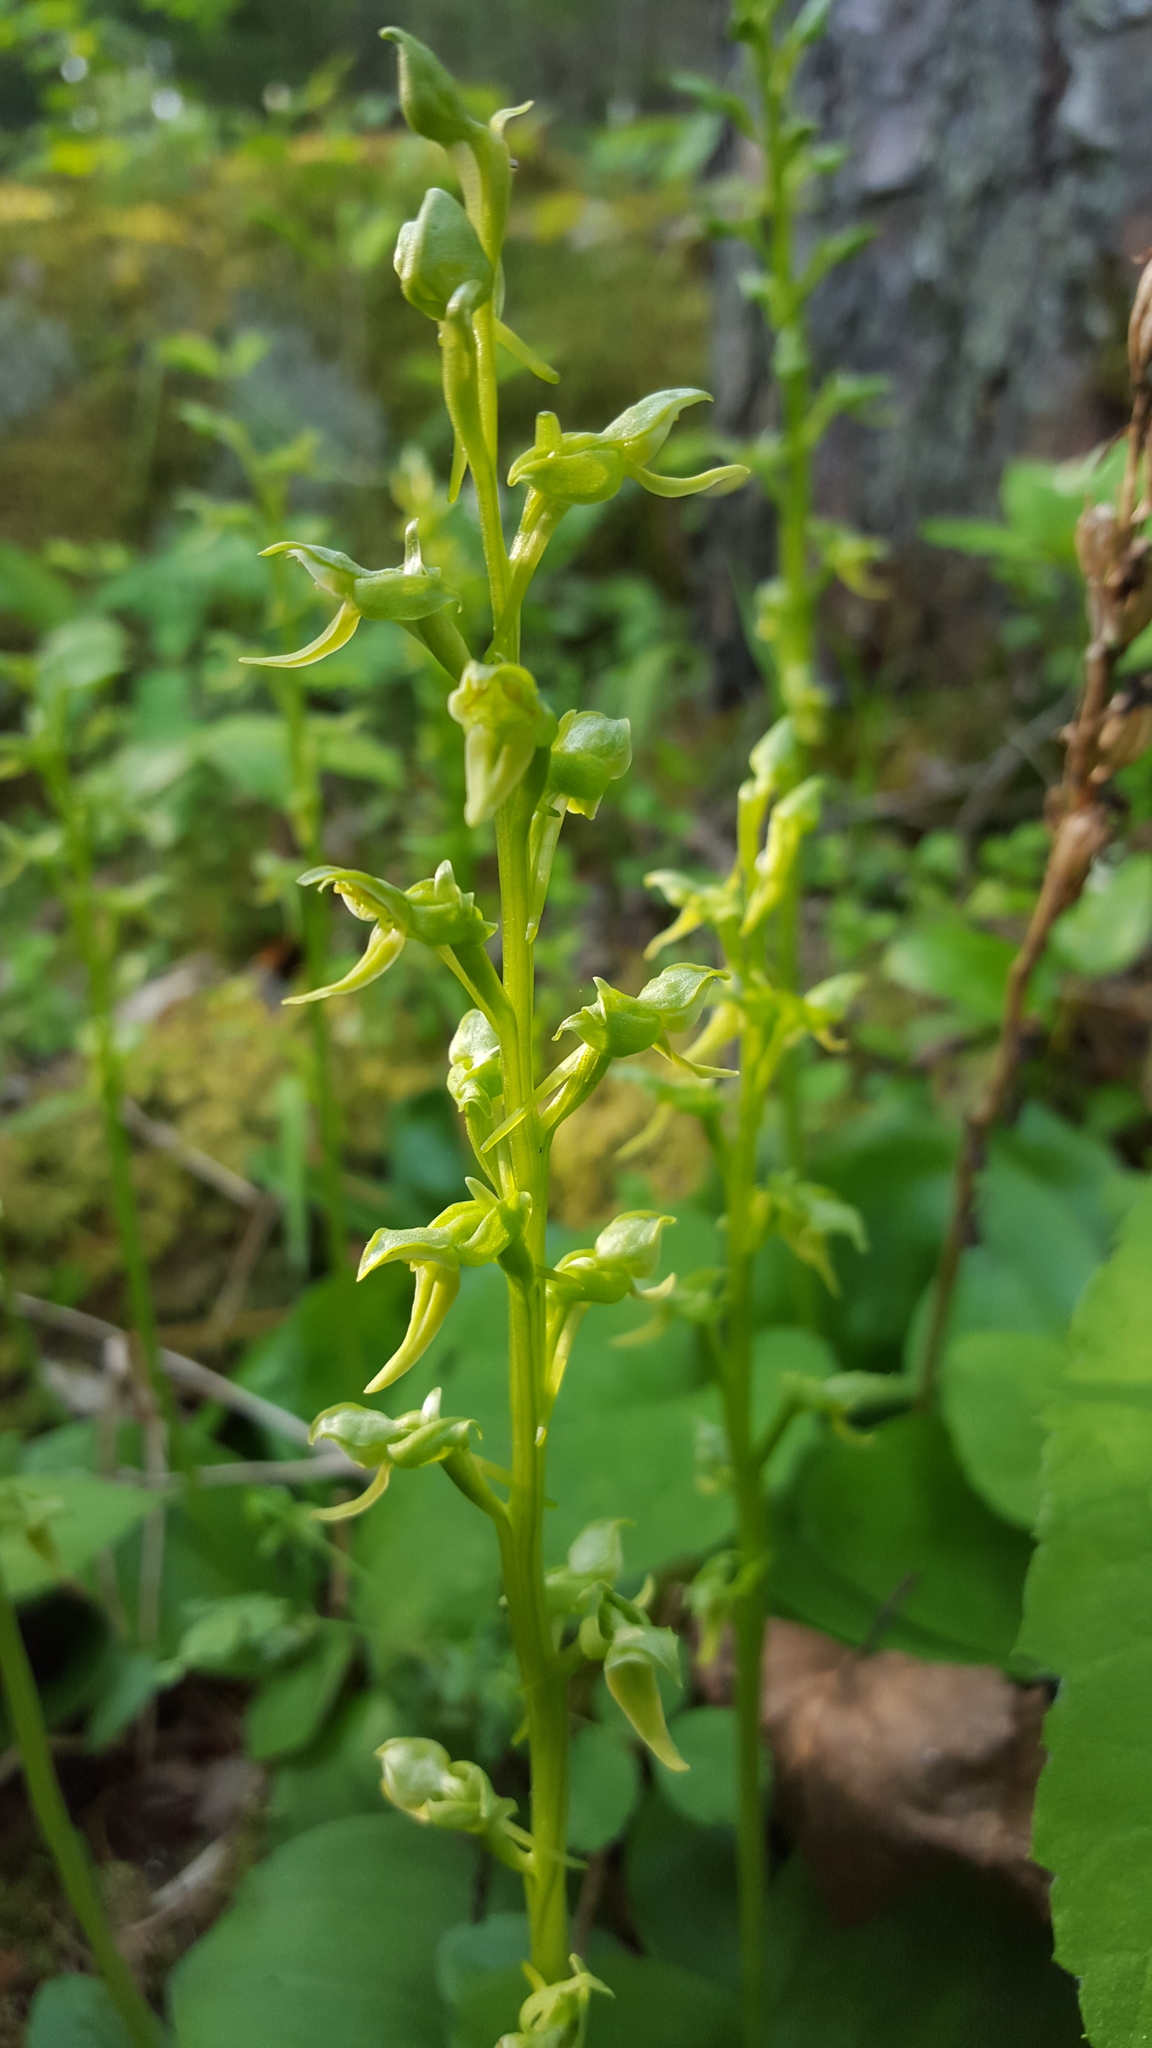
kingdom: Plantae
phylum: Tracheophyta
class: Liliopsida
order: Asparagales
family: Orchidaceae
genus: Platanthera
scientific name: Platanthera hookeri
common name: Hooker's orchid
